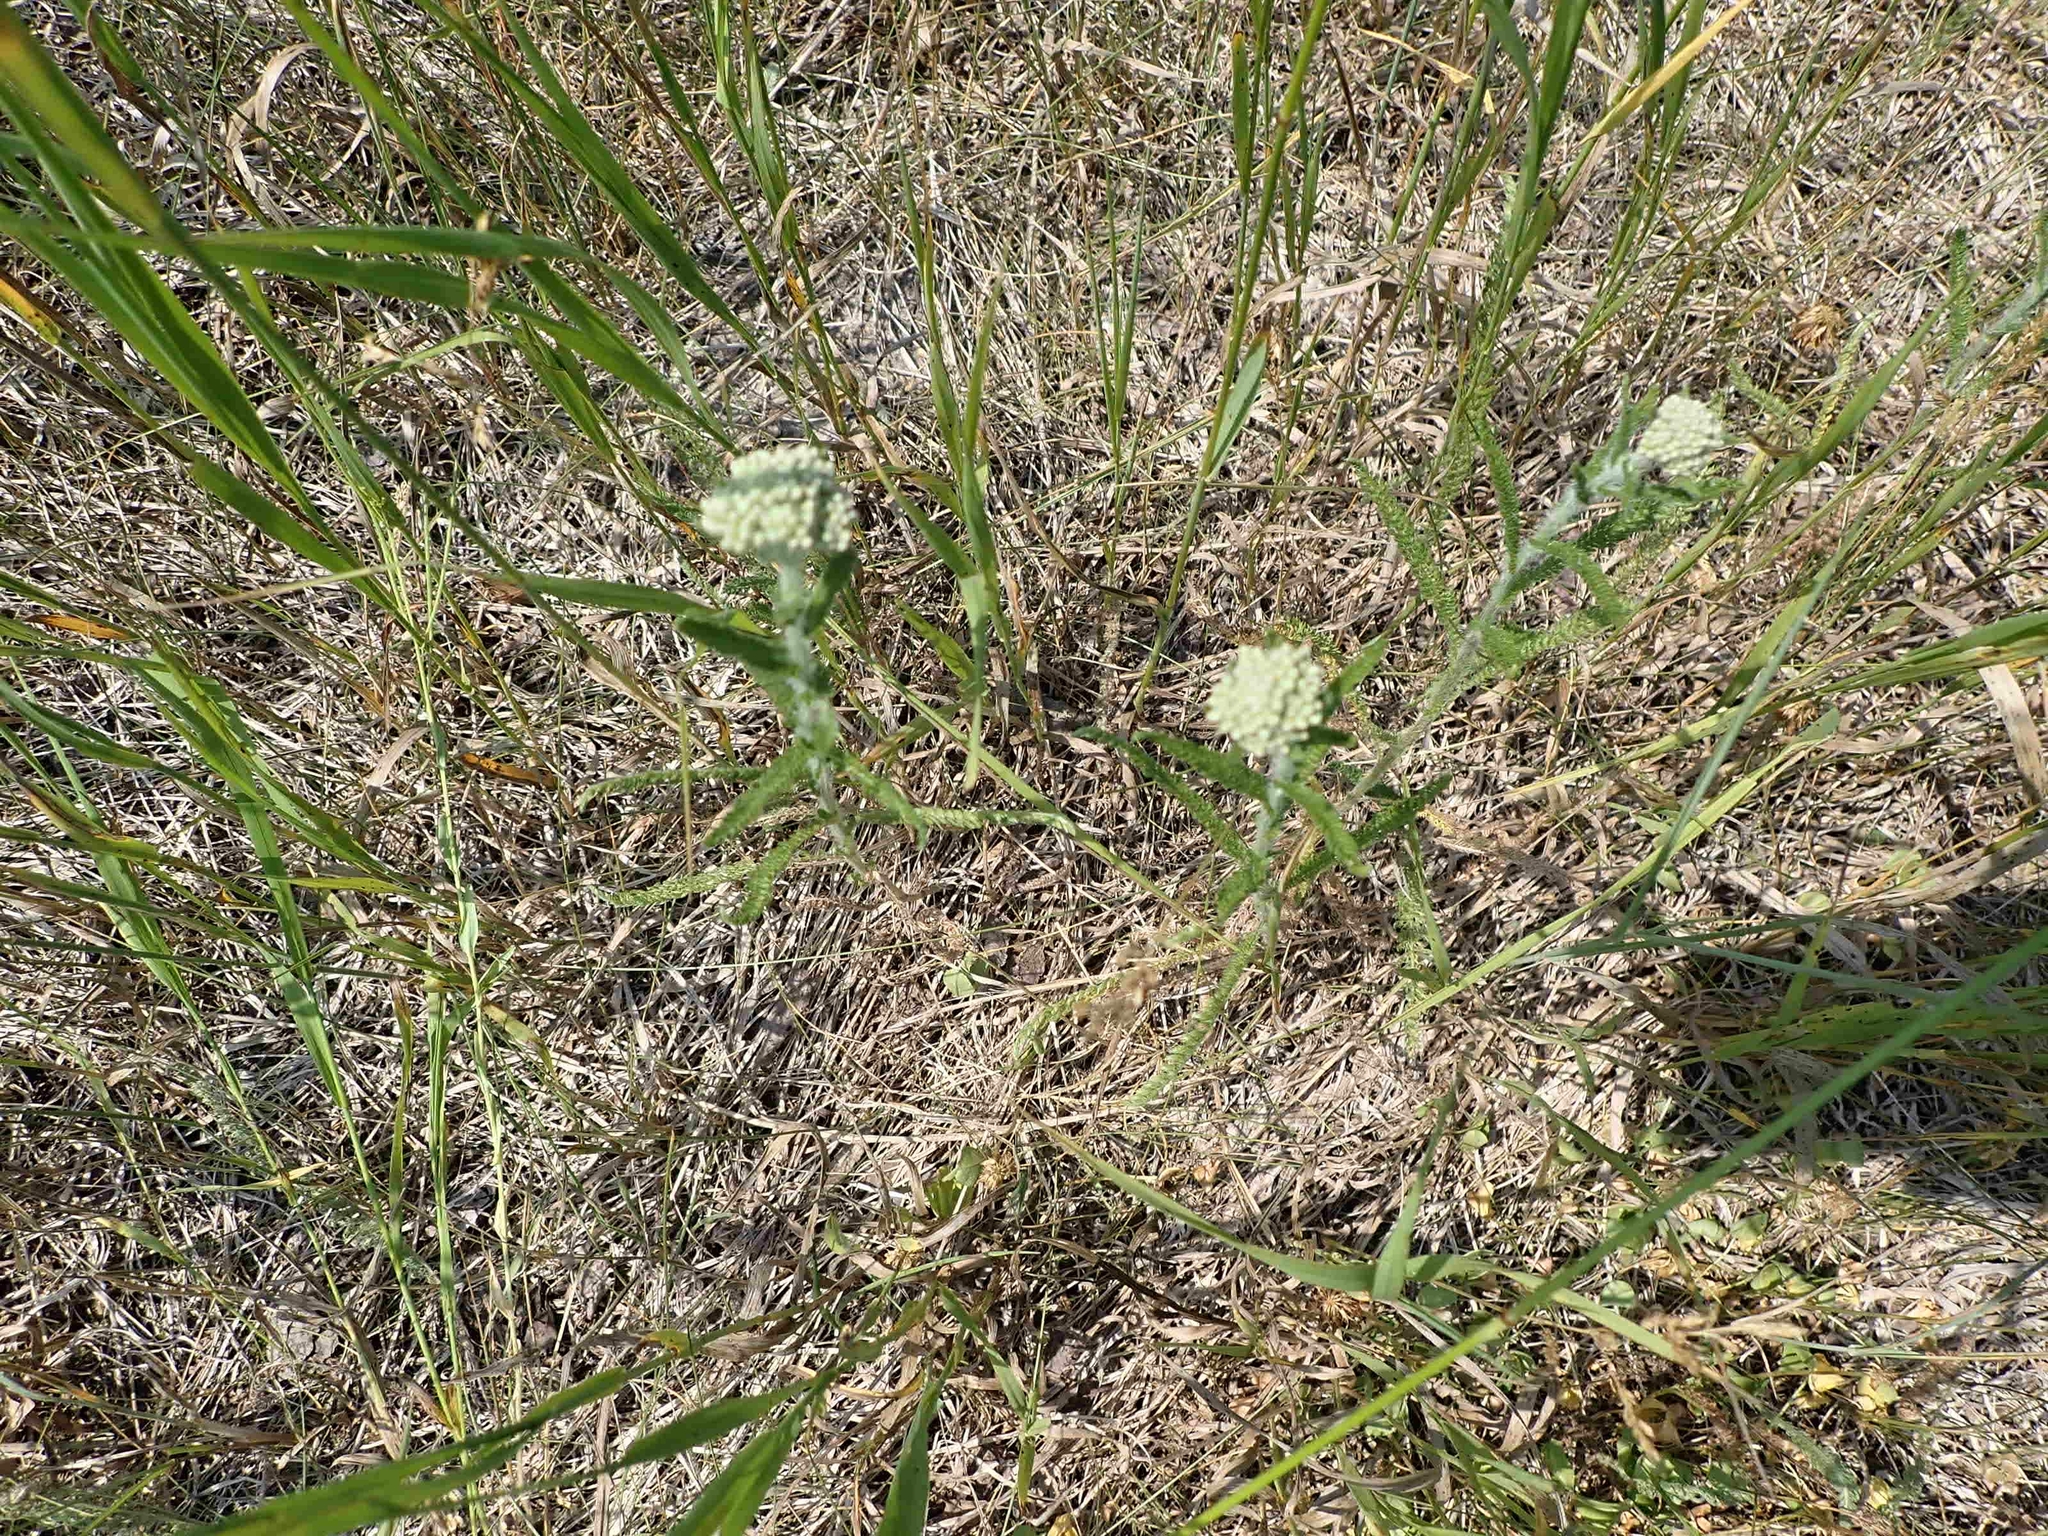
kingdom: Plantae
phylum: Tracheophyta
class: Magnoliopsida
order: Asterales
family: Asteraceae
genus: Achillea
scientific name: Achillea millefolium
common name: Yarrow
